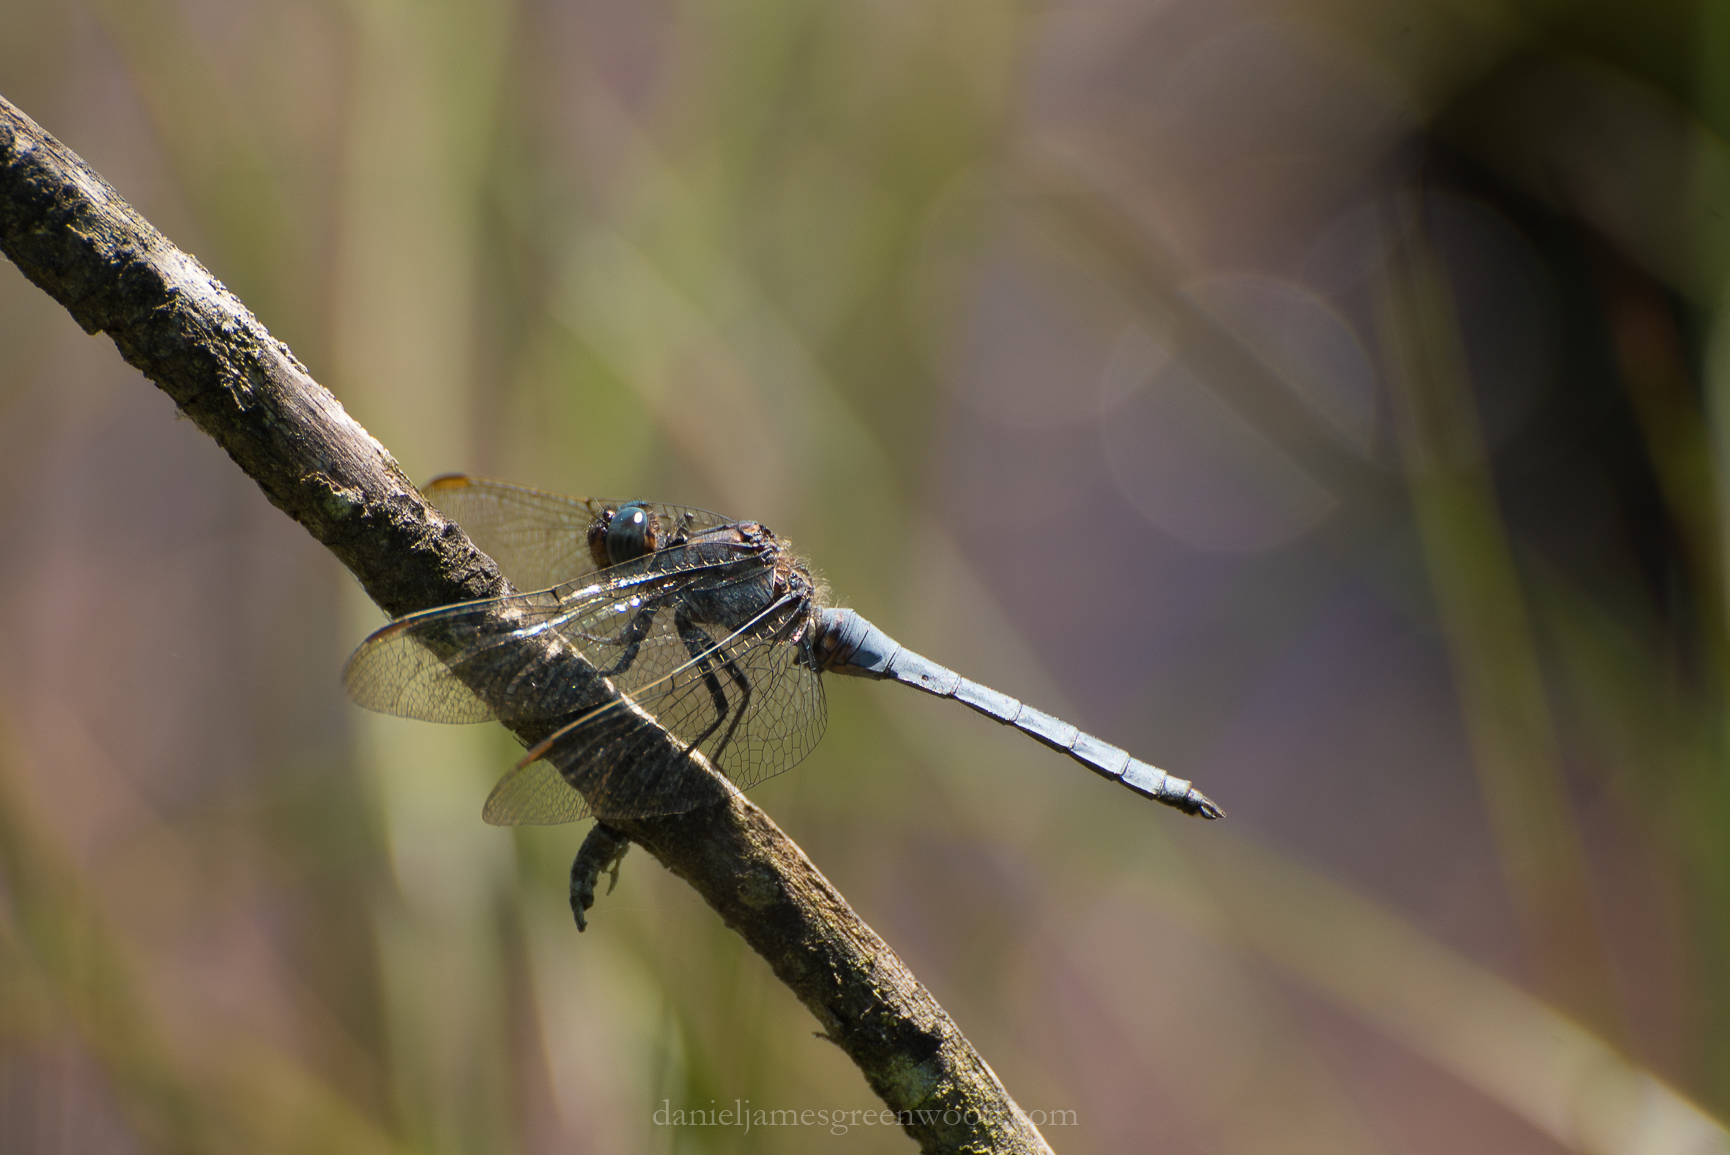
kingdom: Animalia
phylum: Arthropoda
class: Insecta
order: Odonata
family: Libellulidae
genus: Orthetrum
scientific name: Orthetrum coerulescens
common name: Keeled skimmer
